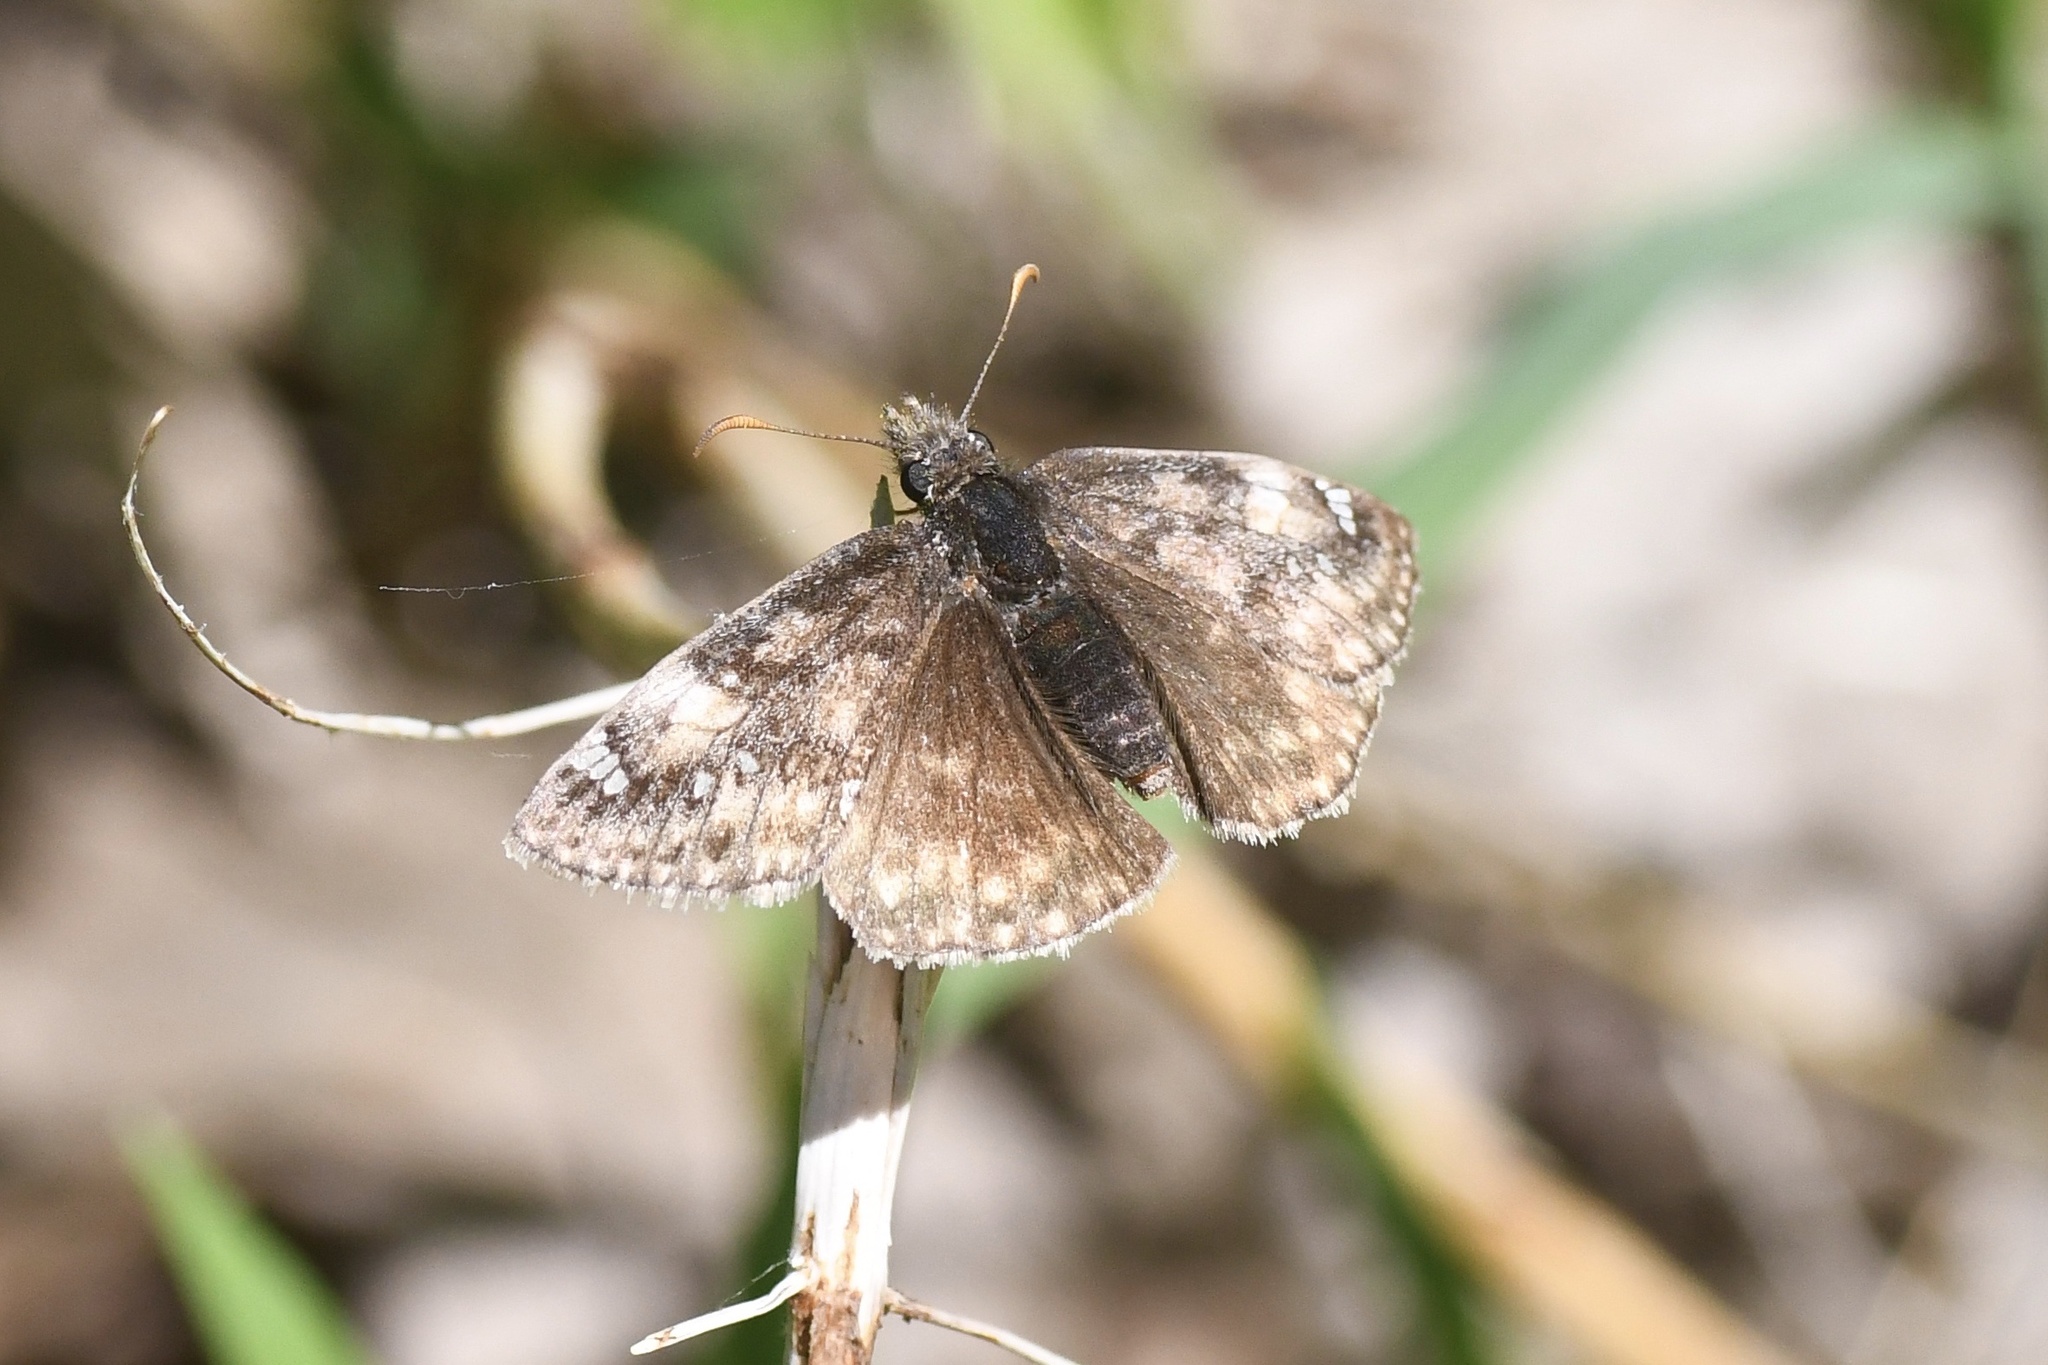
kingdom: Animalia
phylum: Arthropoda
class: Insecta
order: Lepidoptera
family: Hesperiidae
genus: Erynnis
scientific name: Erynnis juvenalis
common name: Juvenal's duskywing
